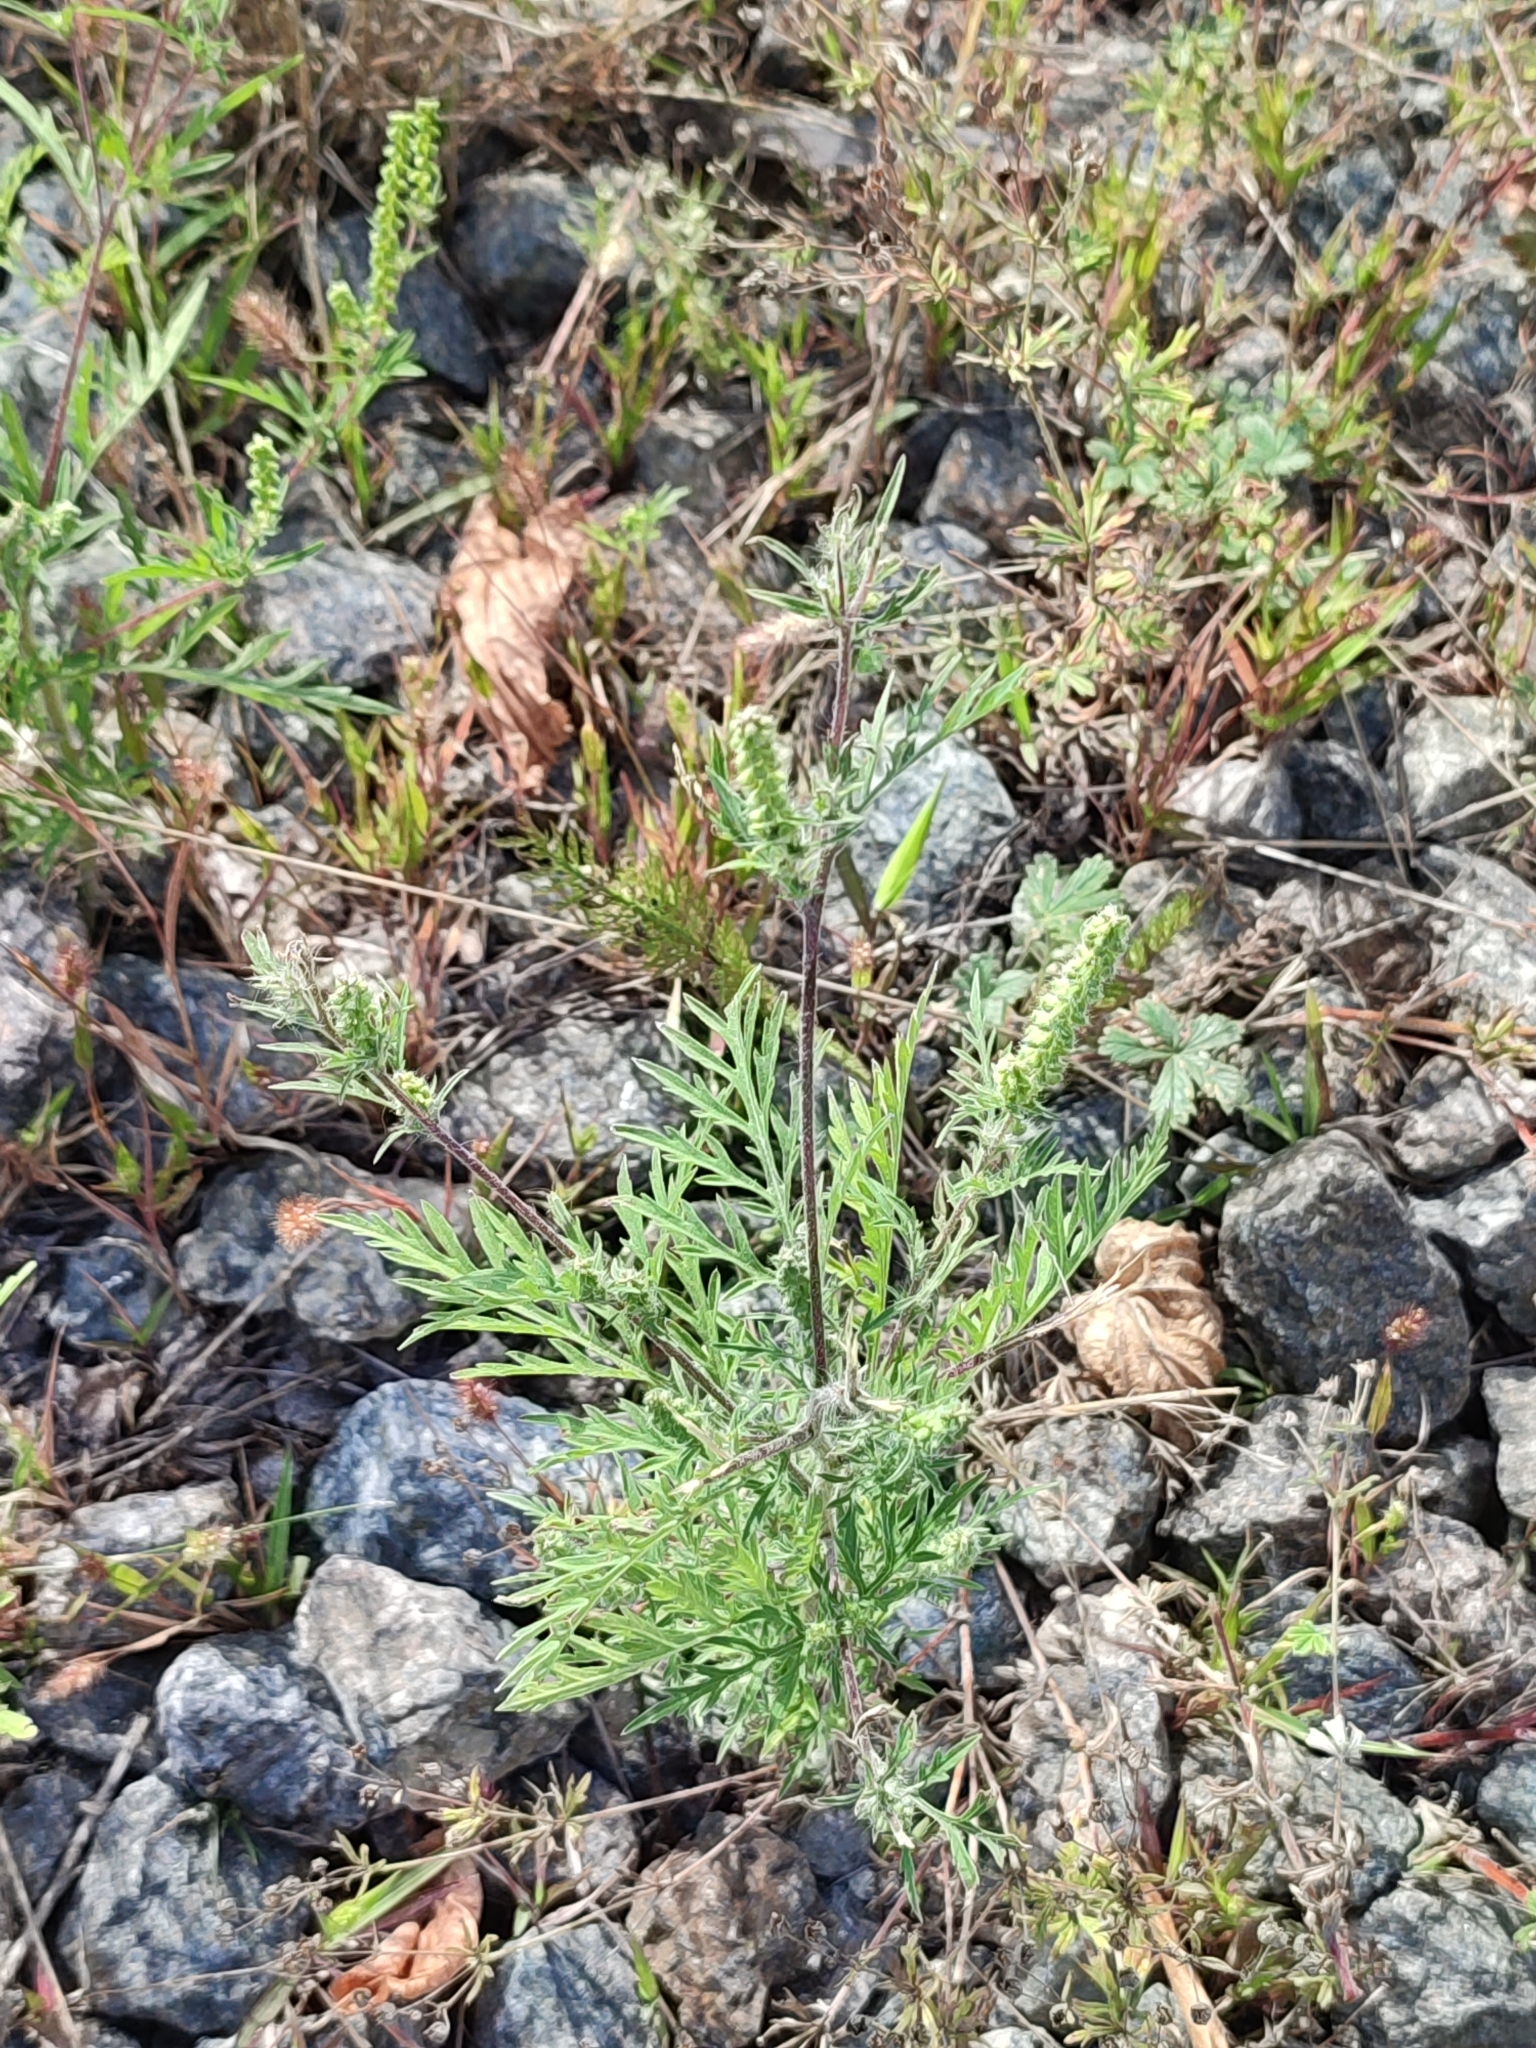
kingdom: Plantae
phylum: Tracheophyta
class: Magnoliopsida
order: Asterales
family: Asteraceae
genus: Ambrosia
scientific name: Ambrosia artemisiifolia
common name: Annual ragweed
